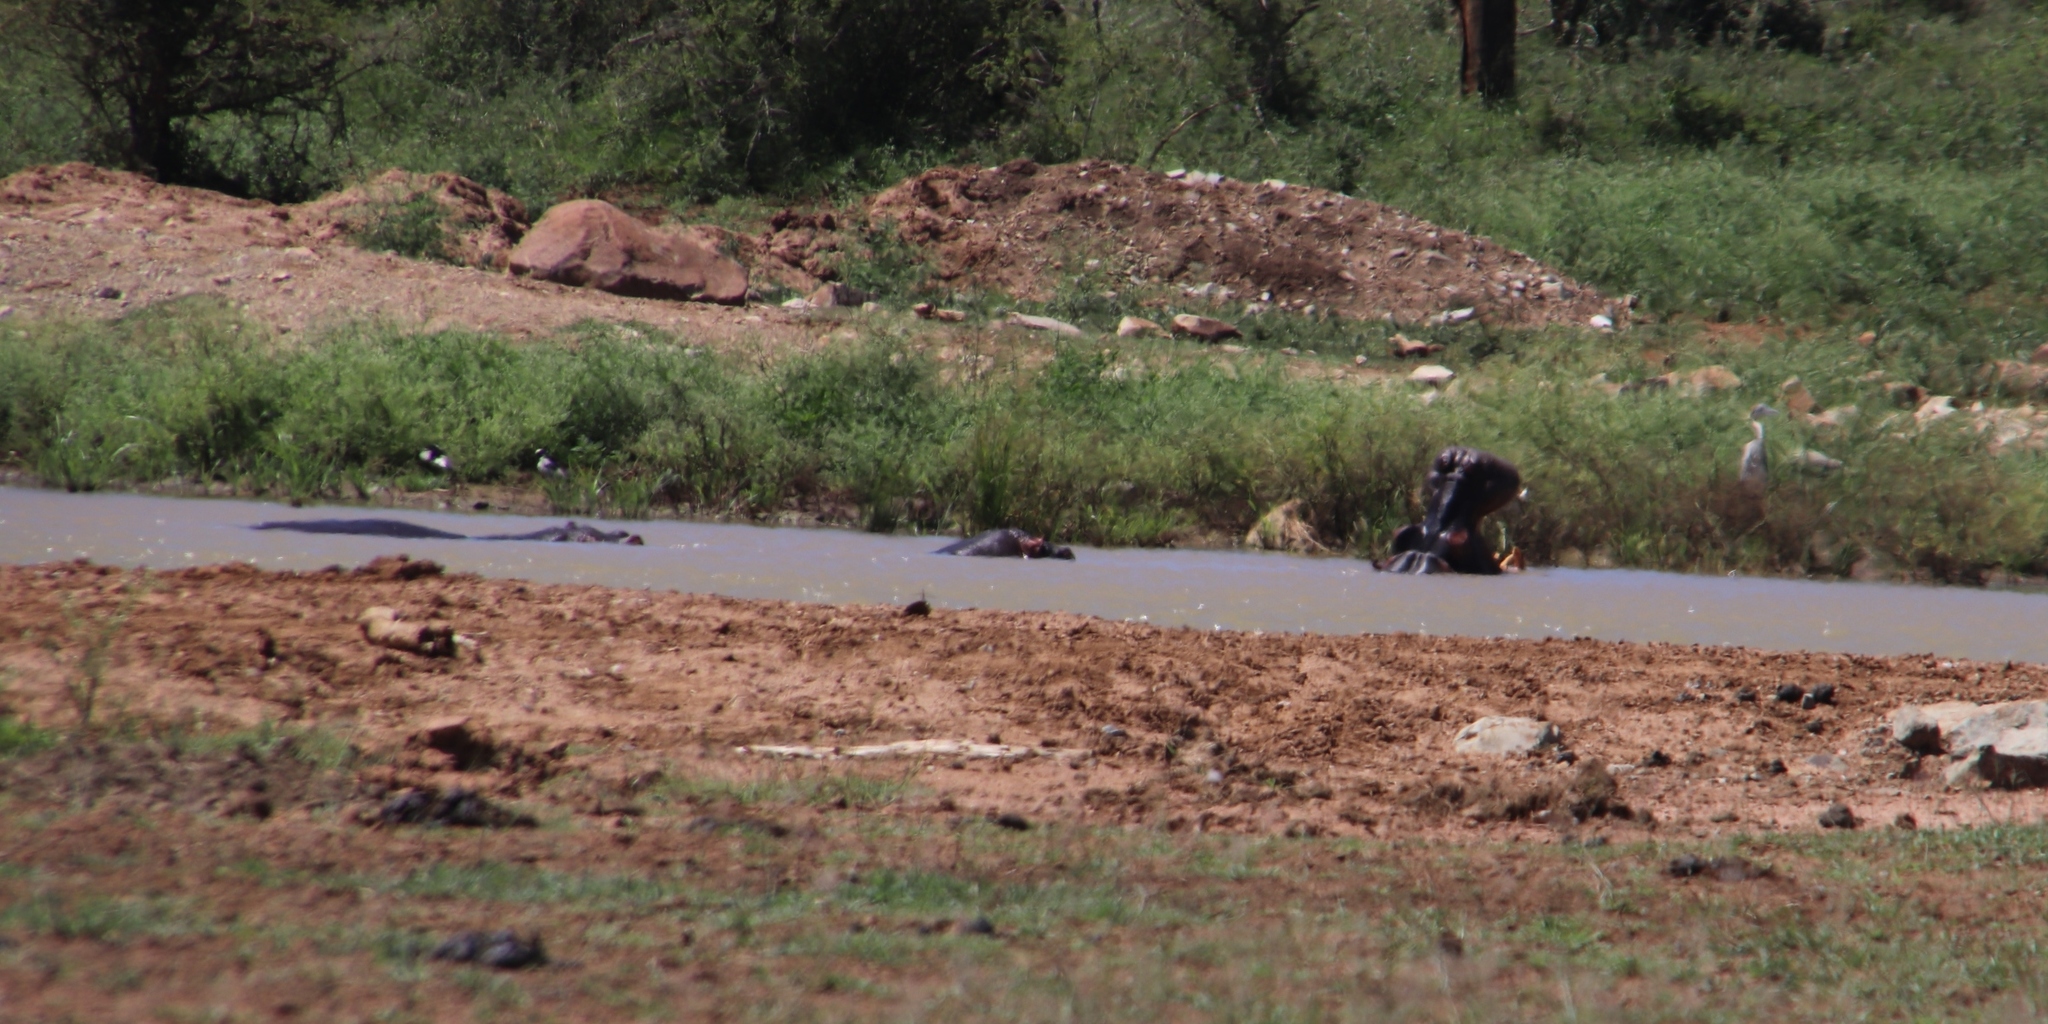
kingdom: Animalia
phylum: Chordata
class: Mammalia
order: Artiodactyla
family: Hippopotamidae
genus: Hippopotamus
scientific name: Hippopotamus amphibius
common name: Common hippopotamus
